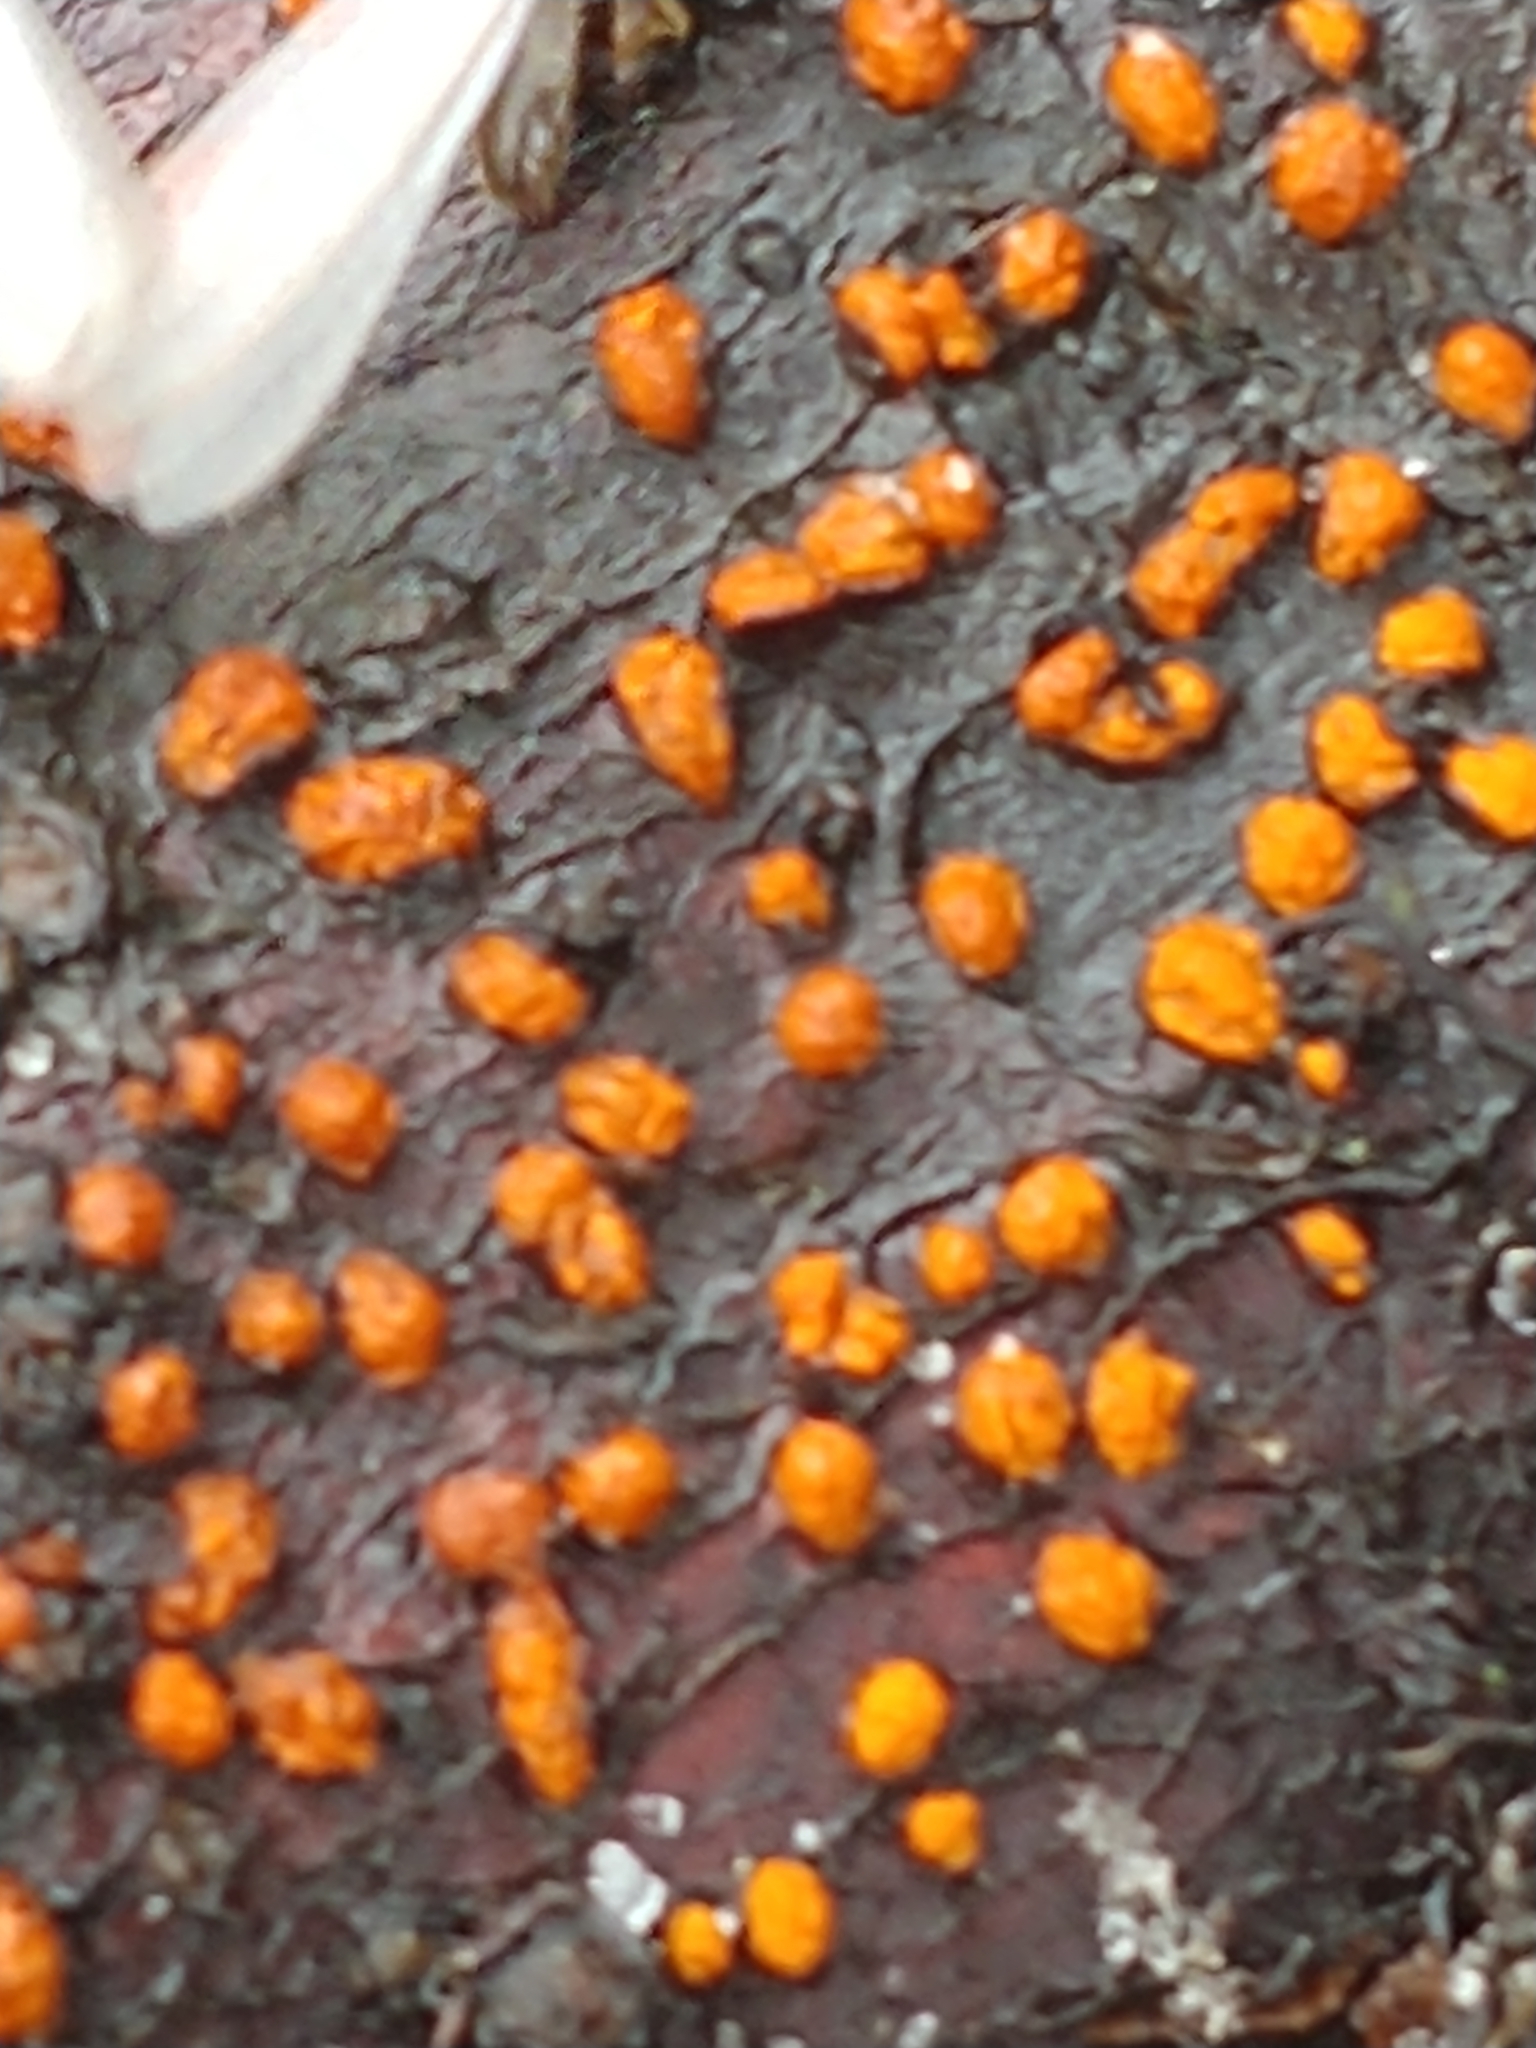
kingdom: Fungi
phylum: Ascomycota
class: Sordariomycetes
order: Hypocreales
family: Nectriaceae
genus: Nectria
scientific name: Nectria cinnabarina
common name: Coral spot
